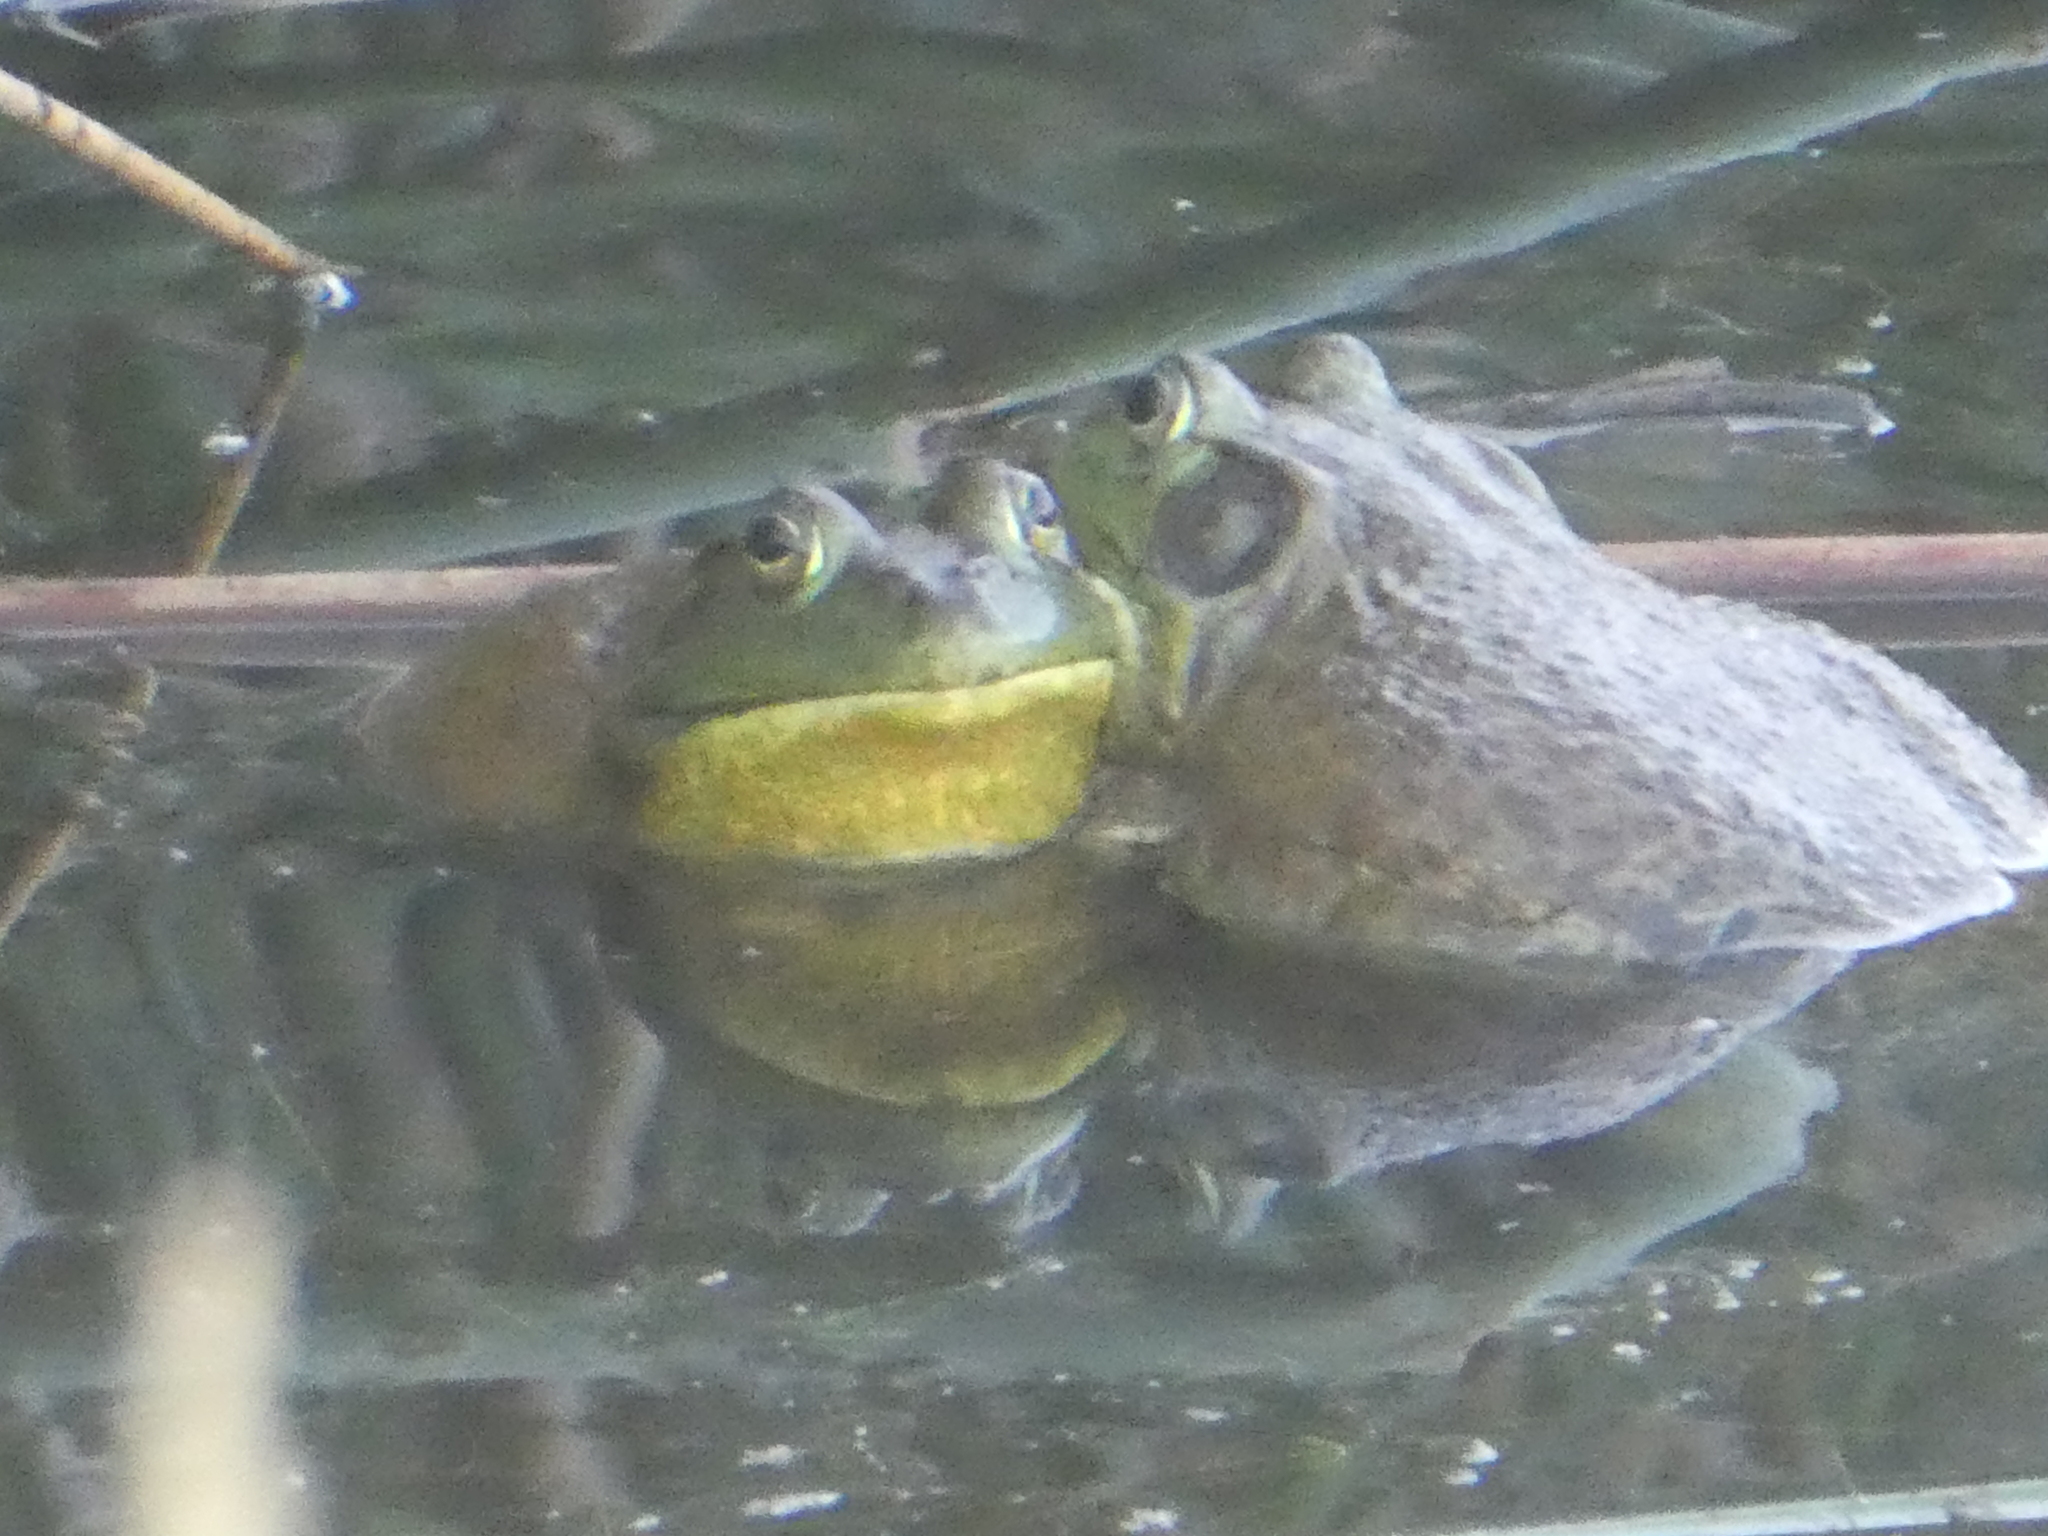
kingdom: Animalia
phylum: Chordata
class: Amphibia
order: Anura
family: Ranidae
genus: Lithobates
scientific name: Lithobates catesbeianus
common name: American bullfrog
